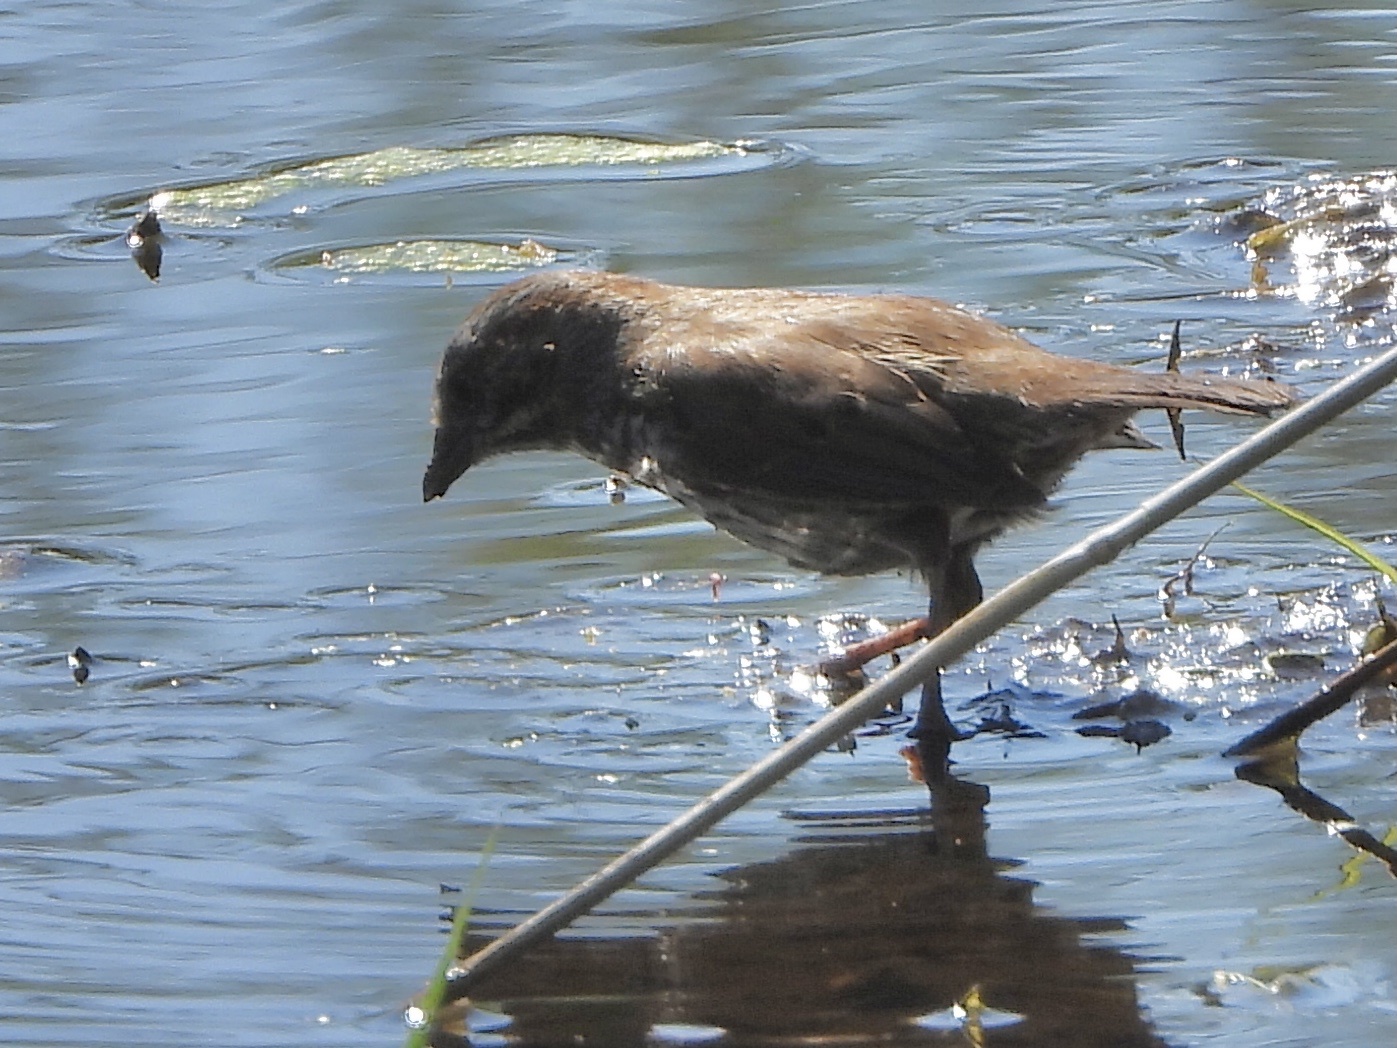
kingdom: Animalia
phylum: Chordata
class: Aves
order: Passeriformes
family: Passerellidae
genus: Melospiza
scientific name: Melospiza melodia
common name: Song sparrow
